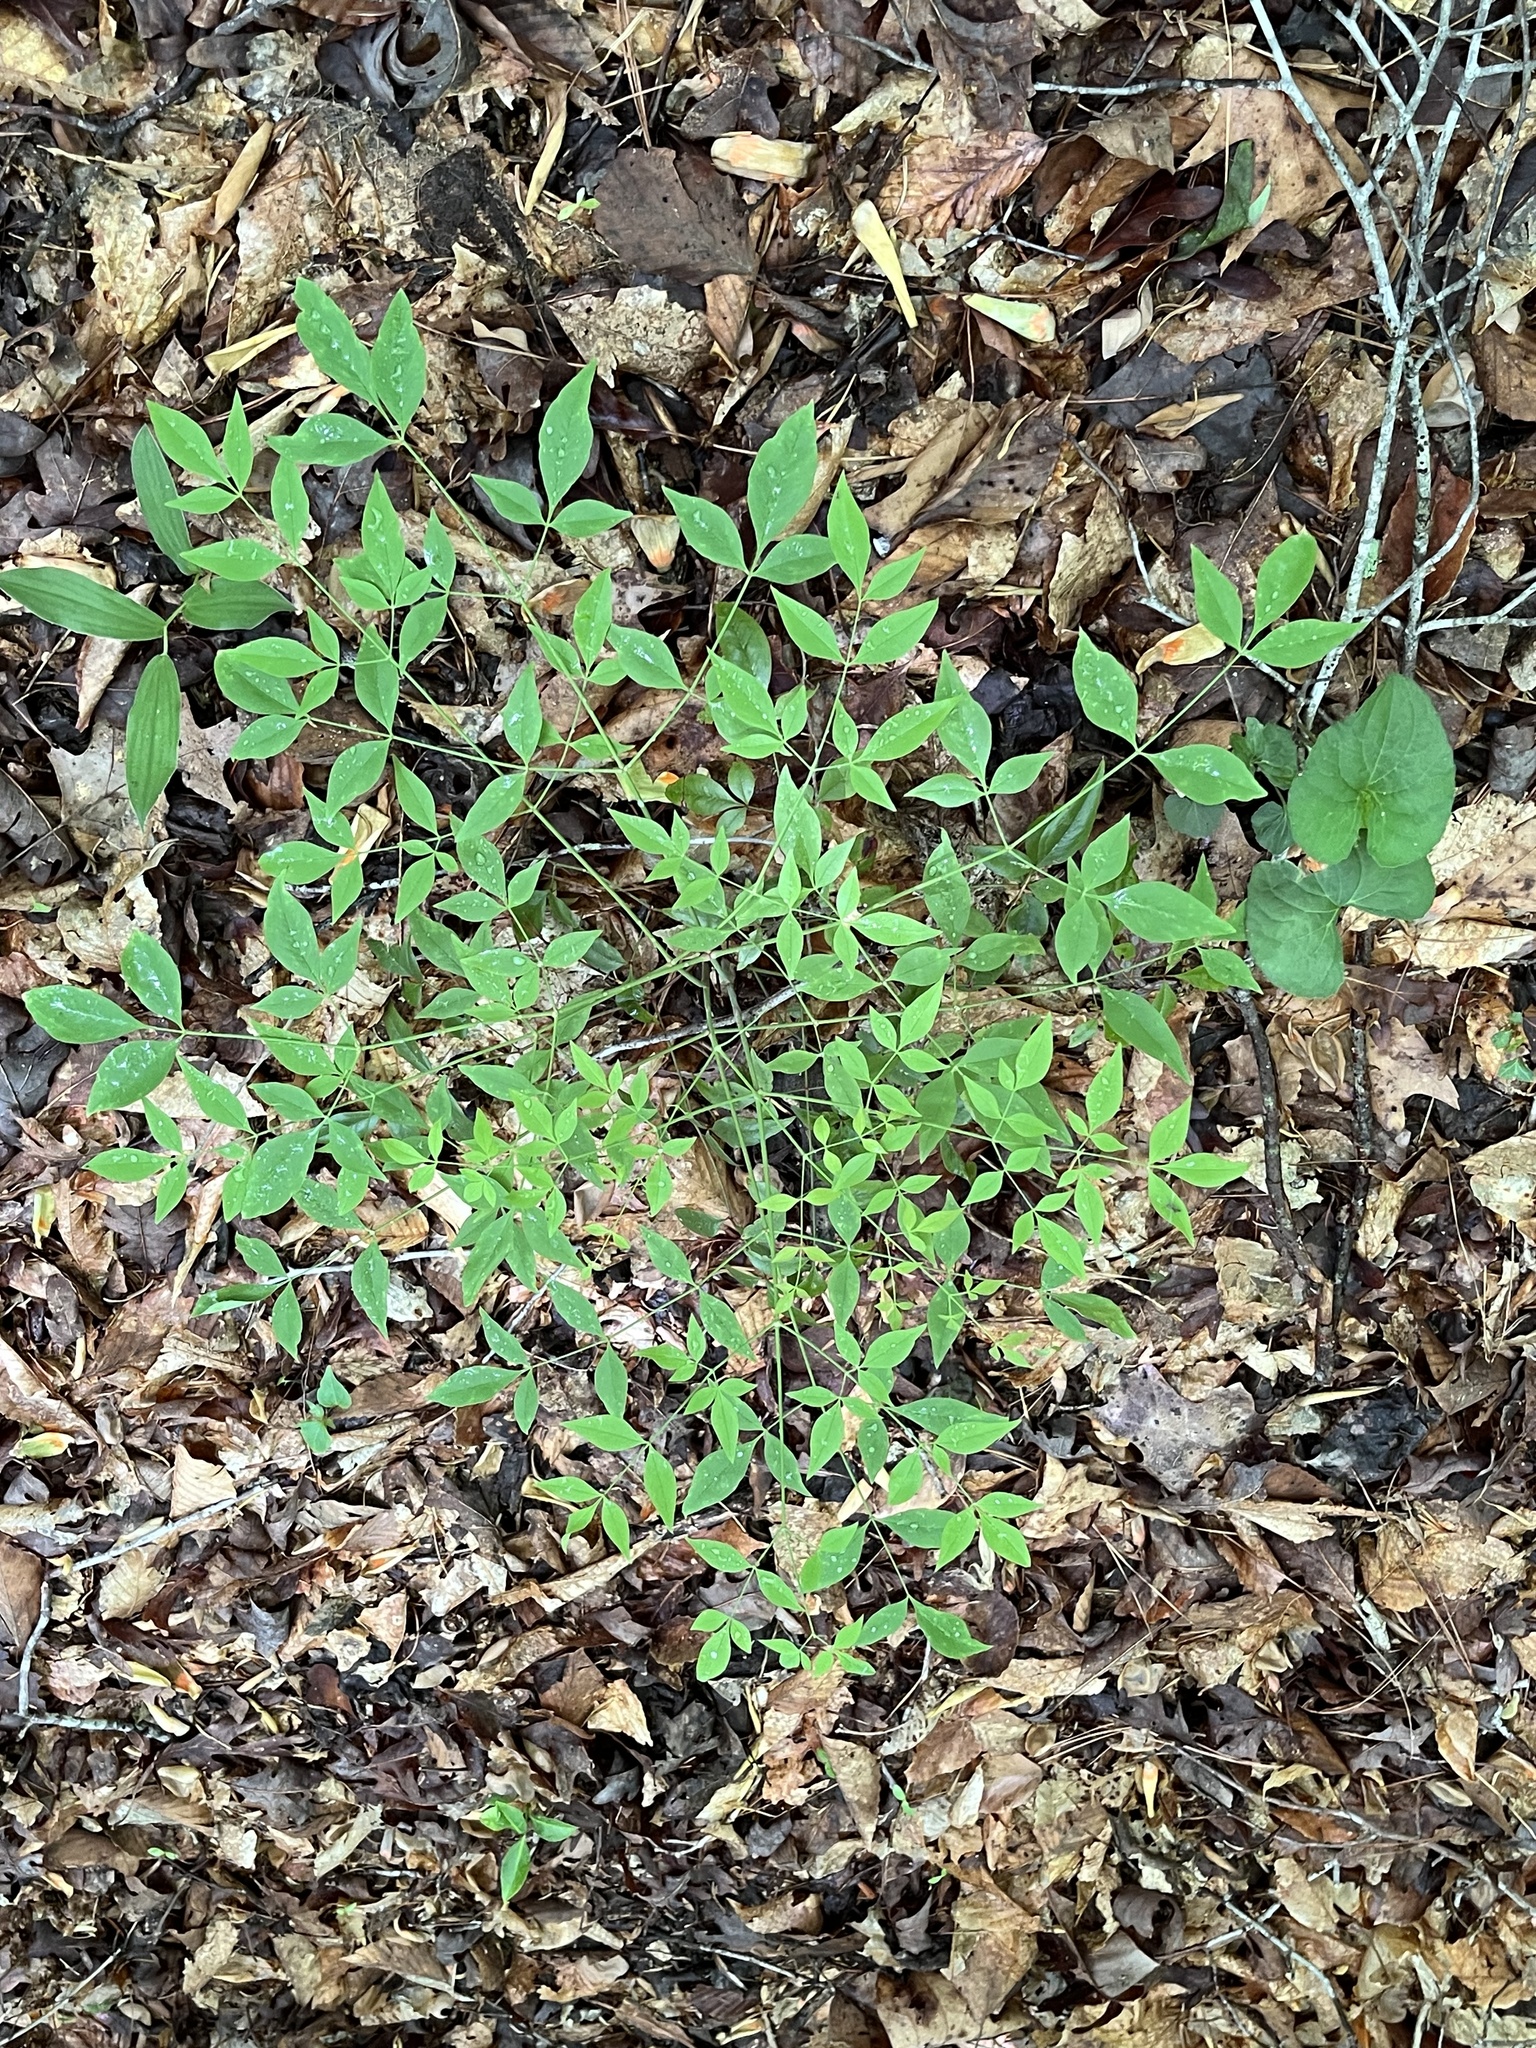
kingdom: Plantae
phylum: Tracheophyta
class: Magnoliopsida
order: Ranunculales
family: Berberidaceae
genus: Nandina
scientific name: Nandina domestica
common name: Sacred bamboo
